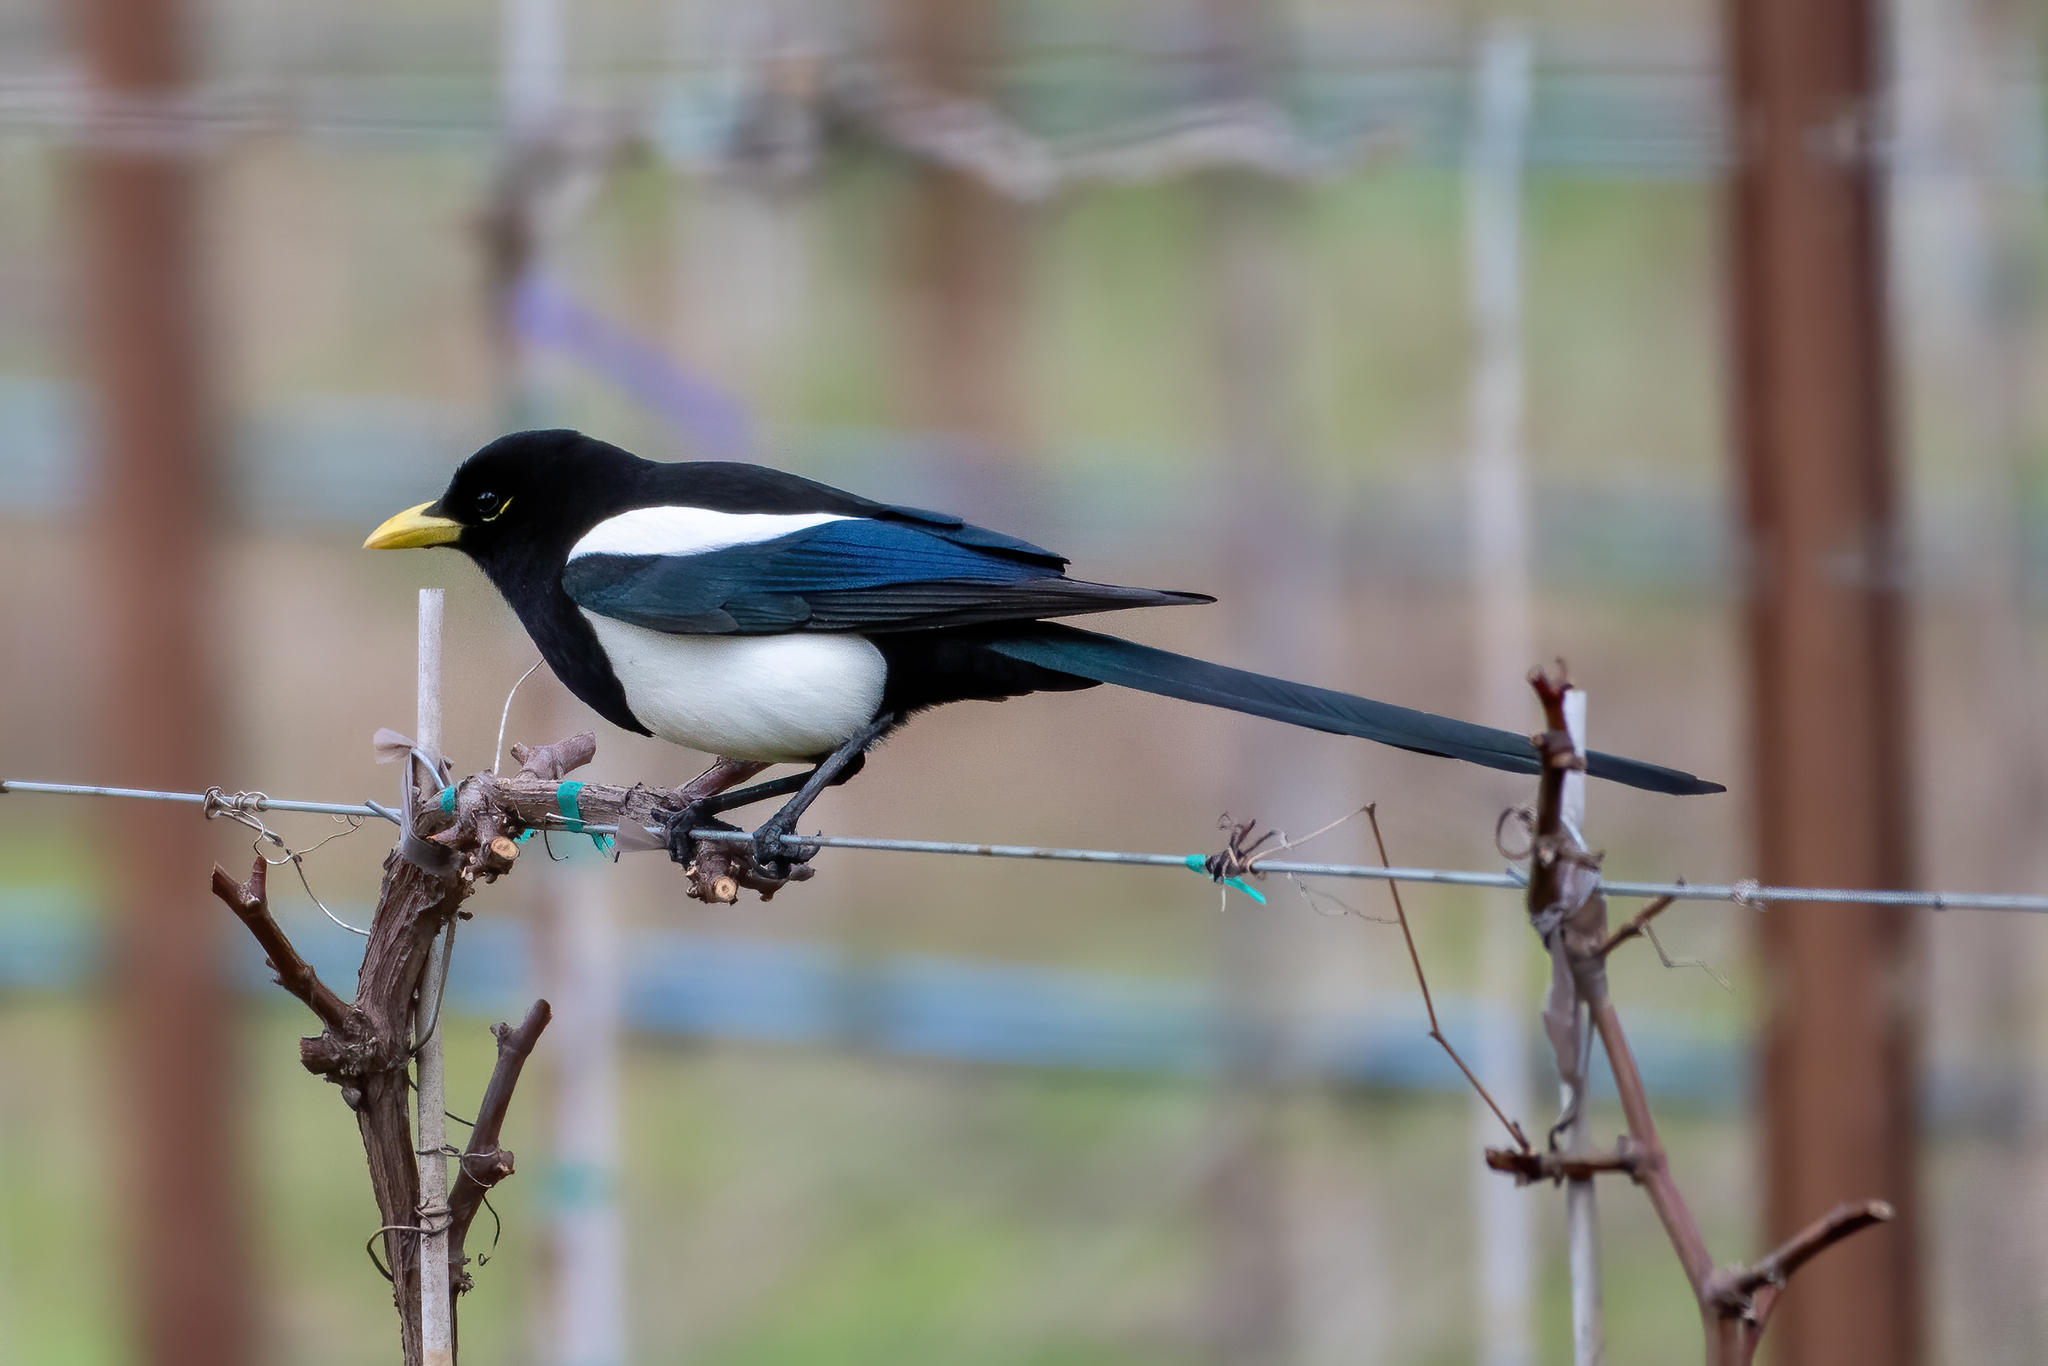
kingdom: Animalia
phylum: Chordata
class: Aves
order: Passeriformes
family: Corvidae
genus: Pica
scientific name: Pica nuttalli
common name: Yellow-billed magpie
